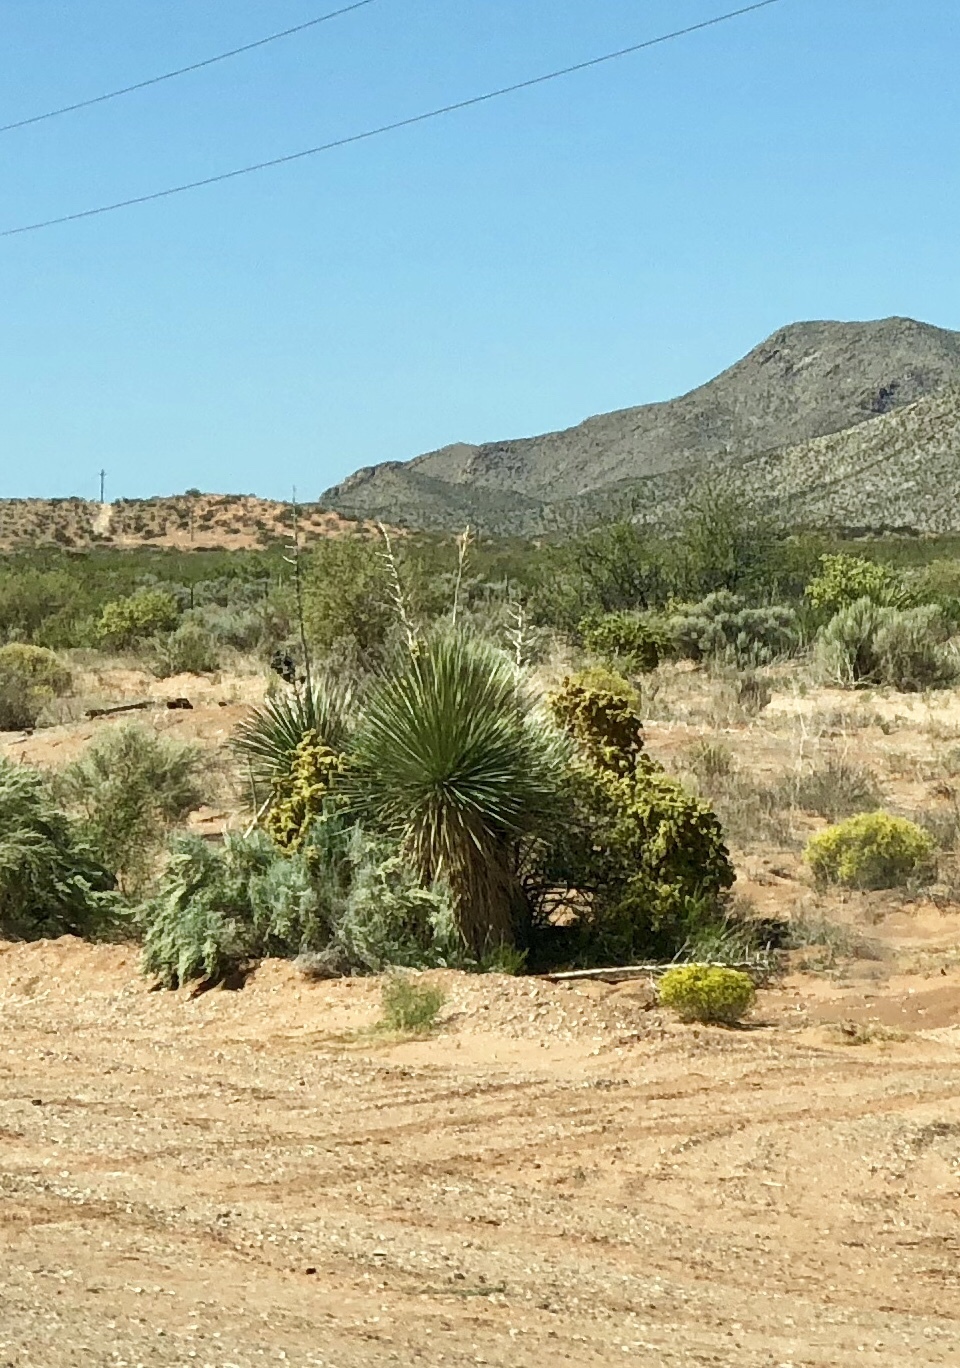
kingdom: Plantae
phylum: Tracheophyta
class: Liliopsida
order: Asparagales
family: Asparagaceae
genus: Yucca
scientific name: Yucca elata
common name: Palmella
